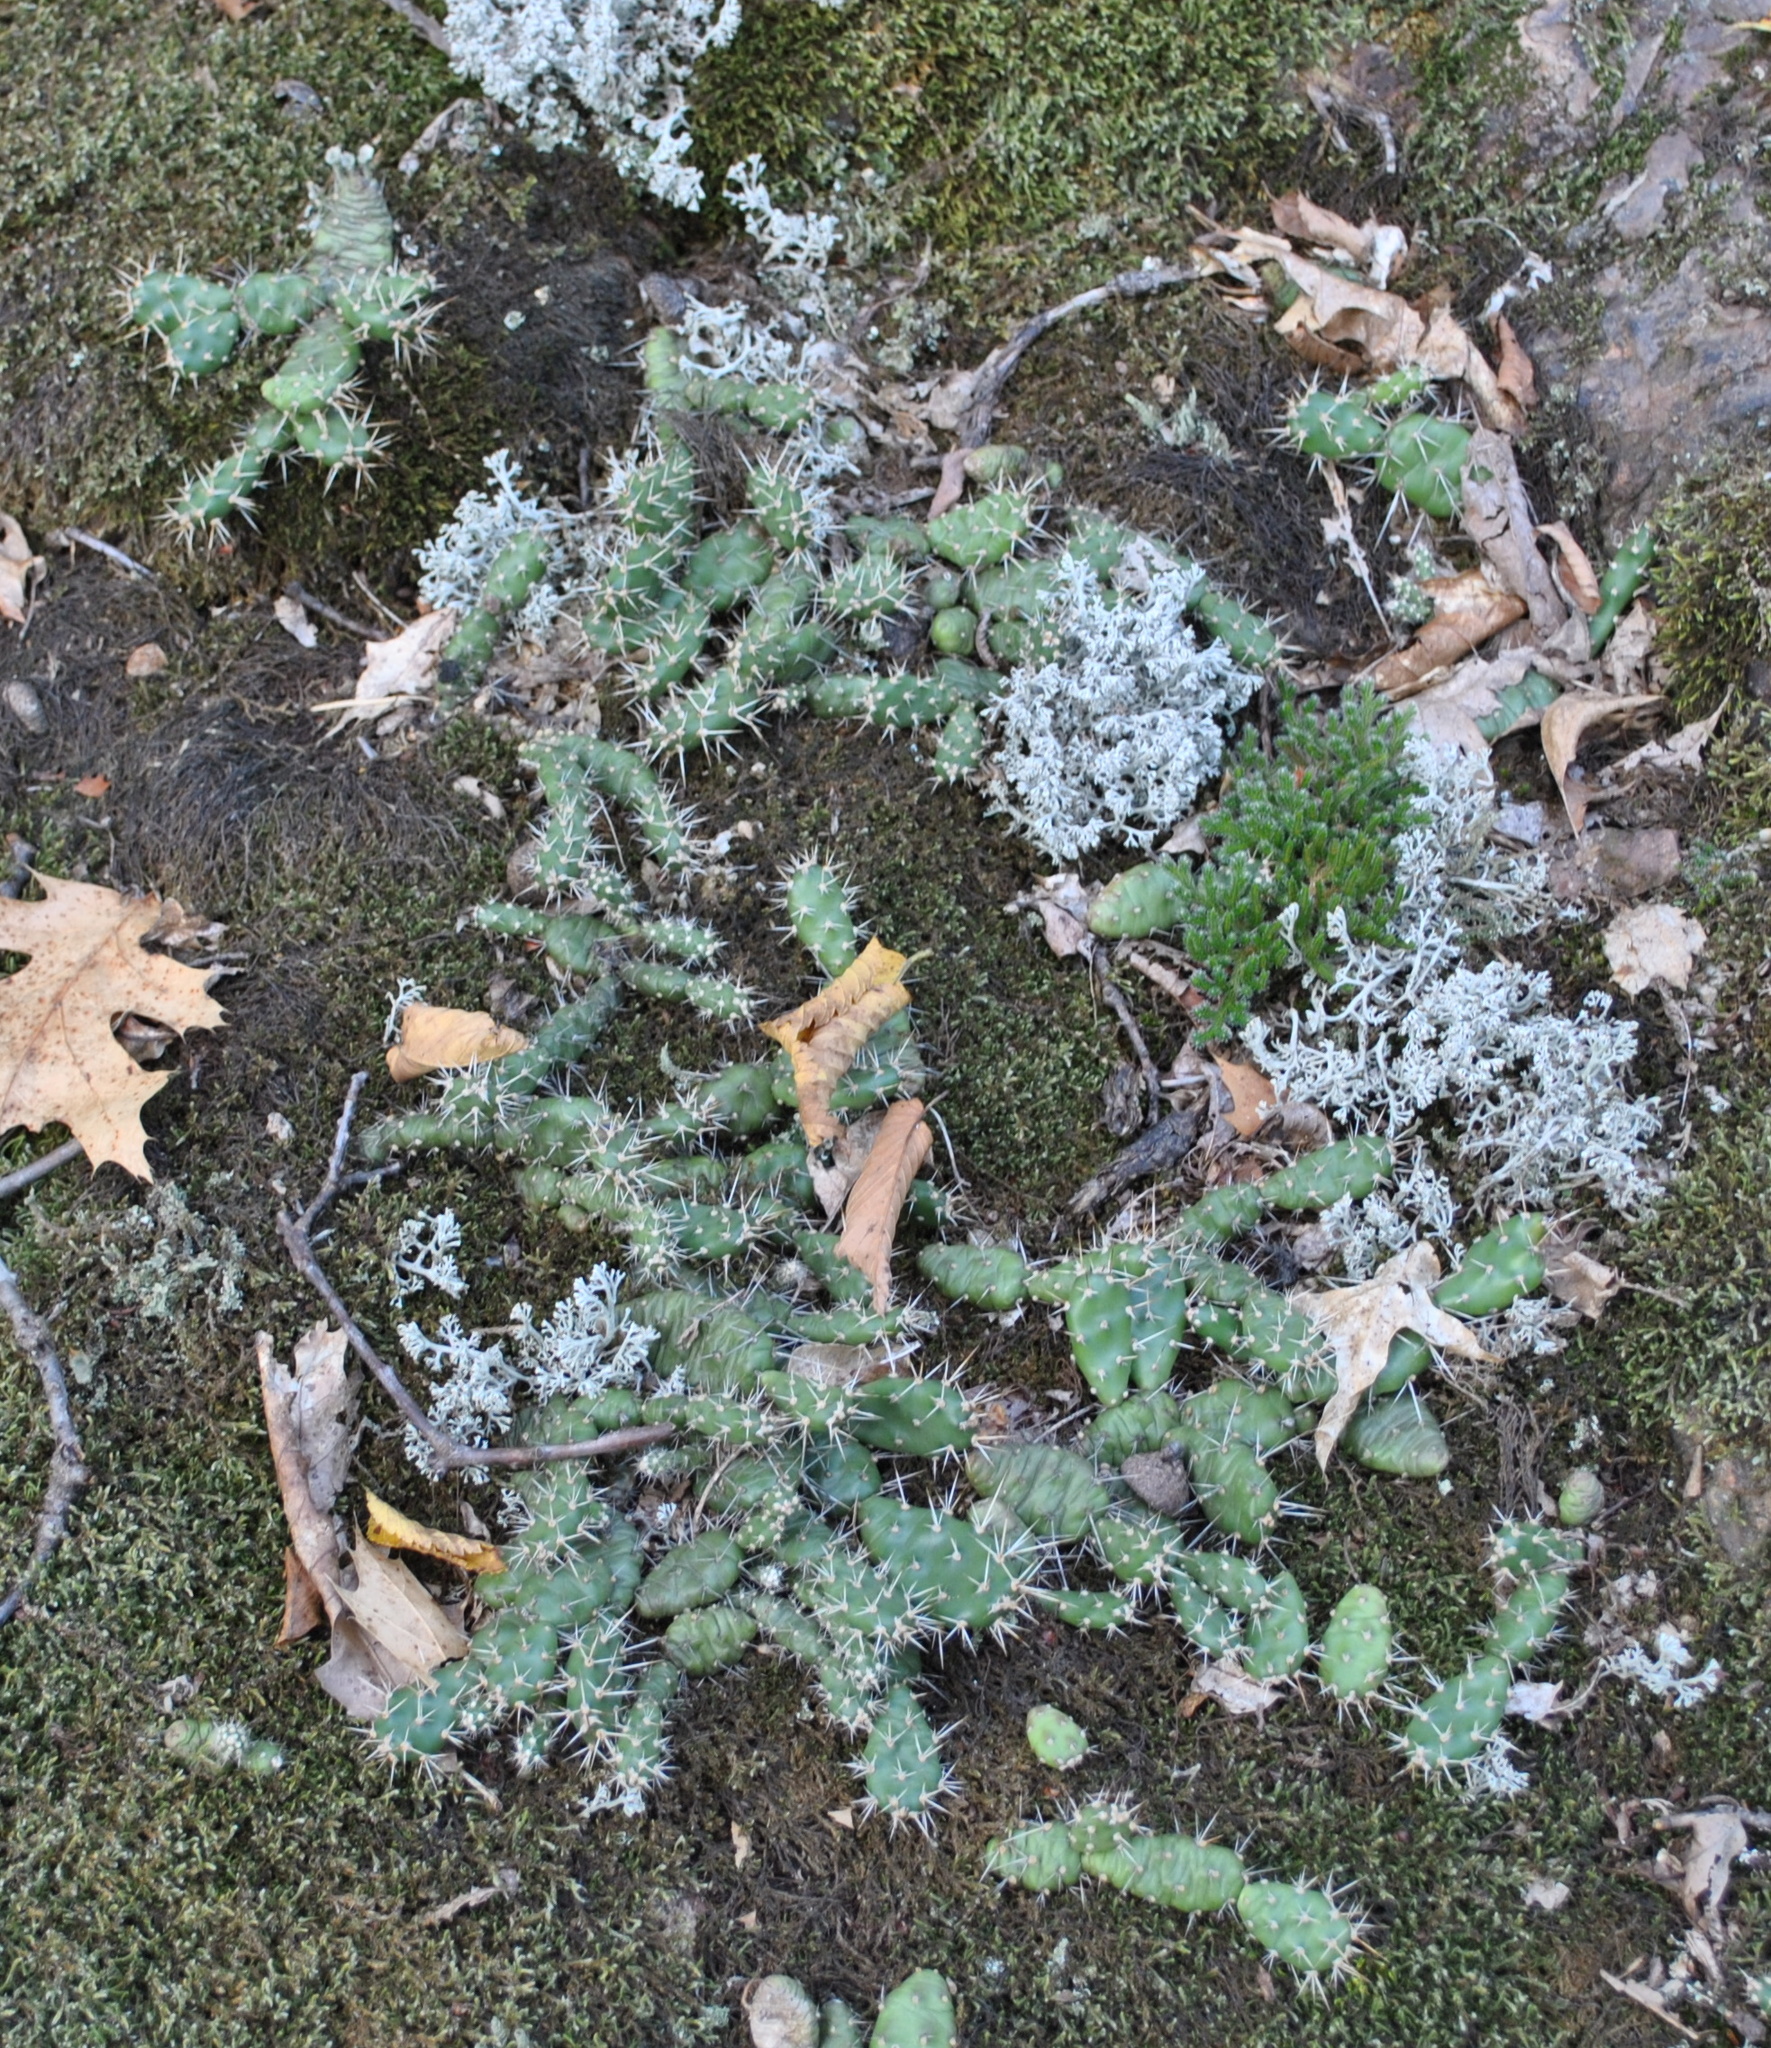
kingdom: Plantae
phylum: Tracheophyta
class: Magnoliopsida
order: Caryophyllales
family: Cactaceae
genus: Opuntia
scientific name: Opuntia fragilis
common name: Brittle cactus
